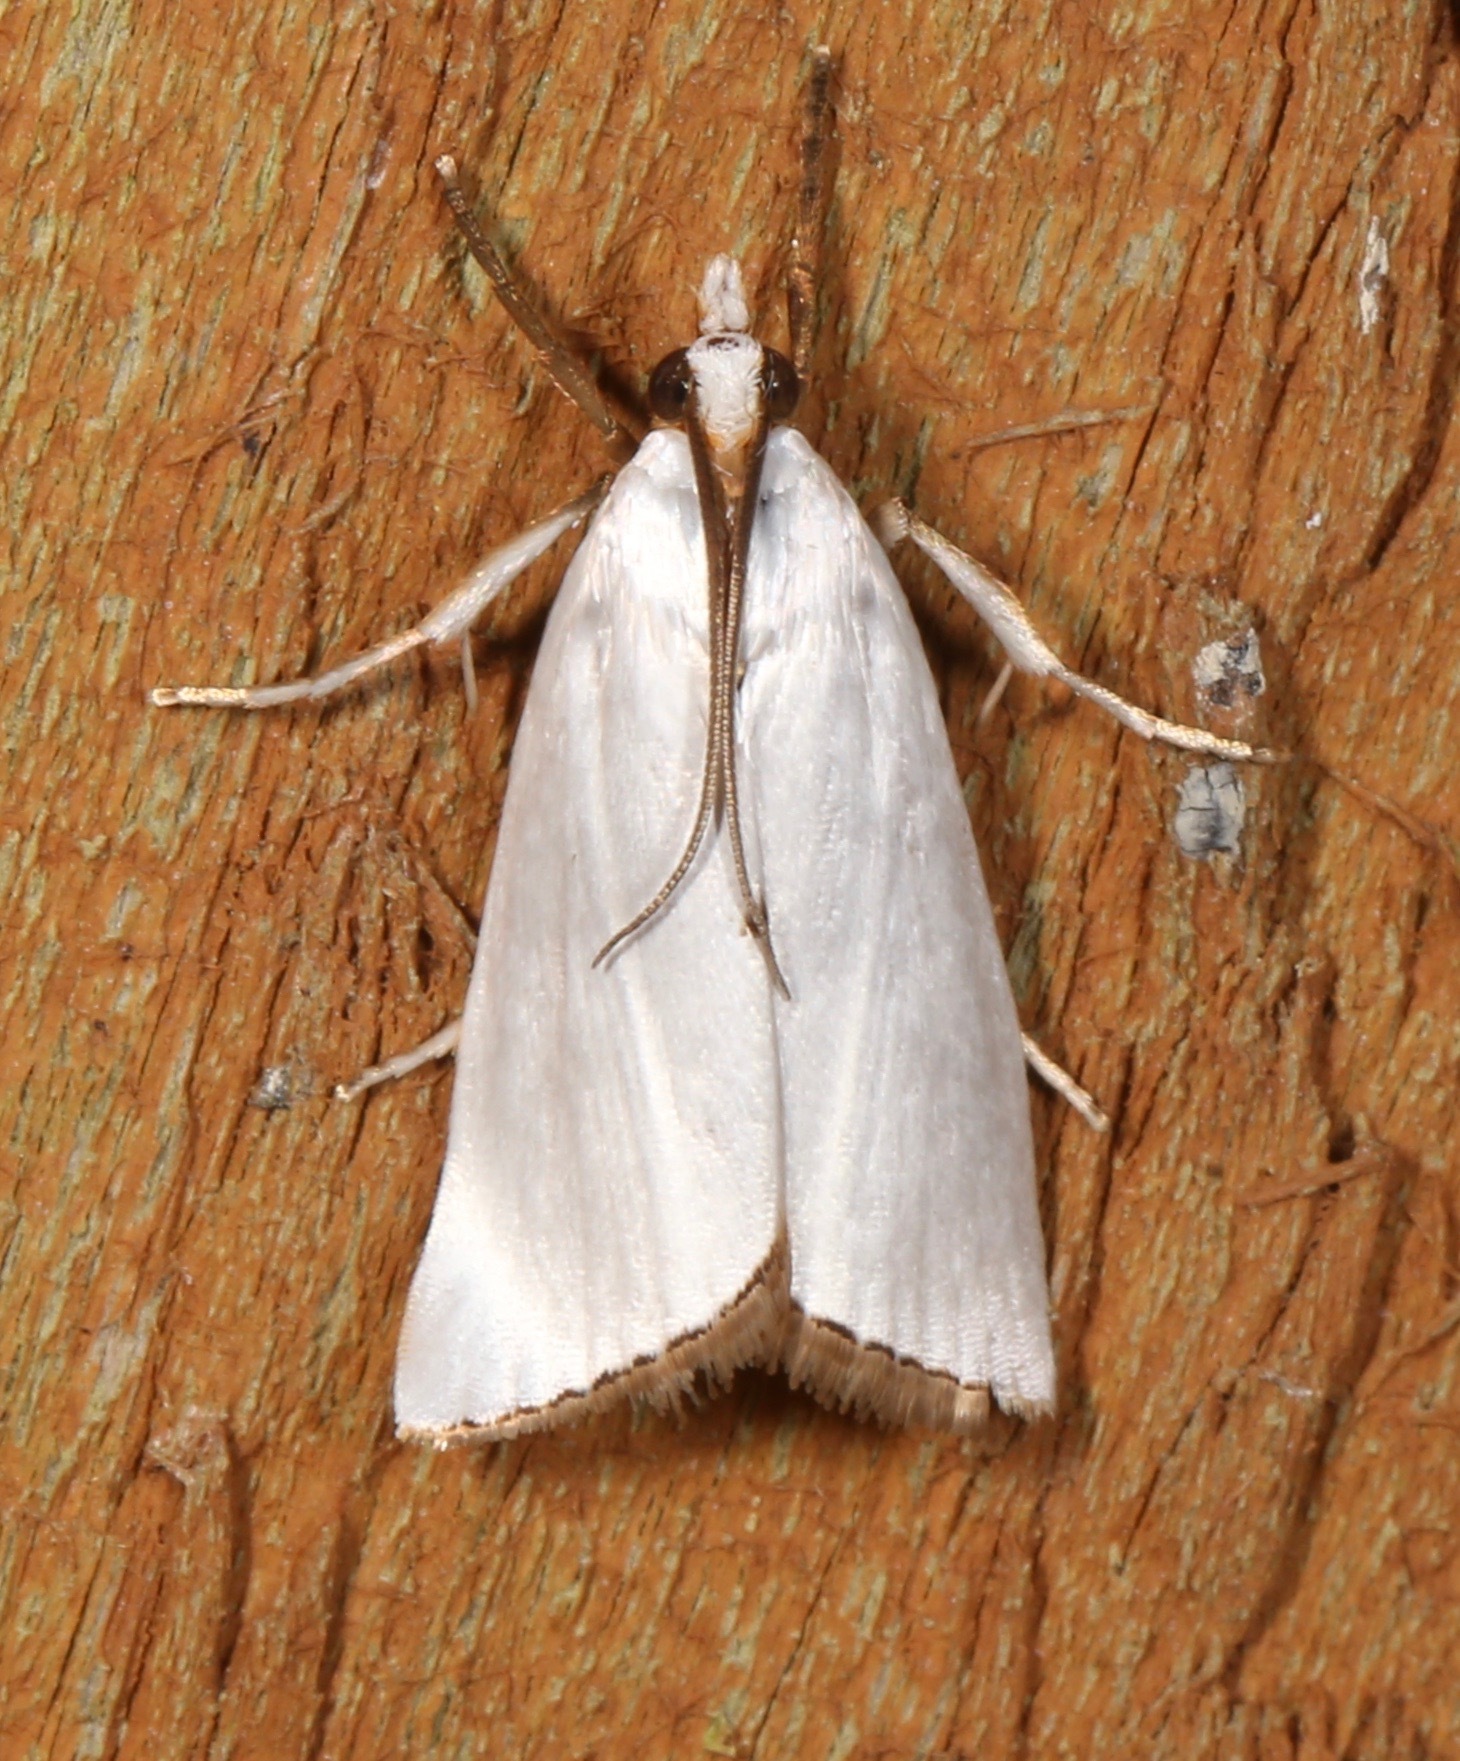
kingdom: Animalia
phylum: Arthropoda
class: Insecta
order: Lepidoptera
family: Crambidae
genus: Argyria
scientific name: Argyria nivalis
